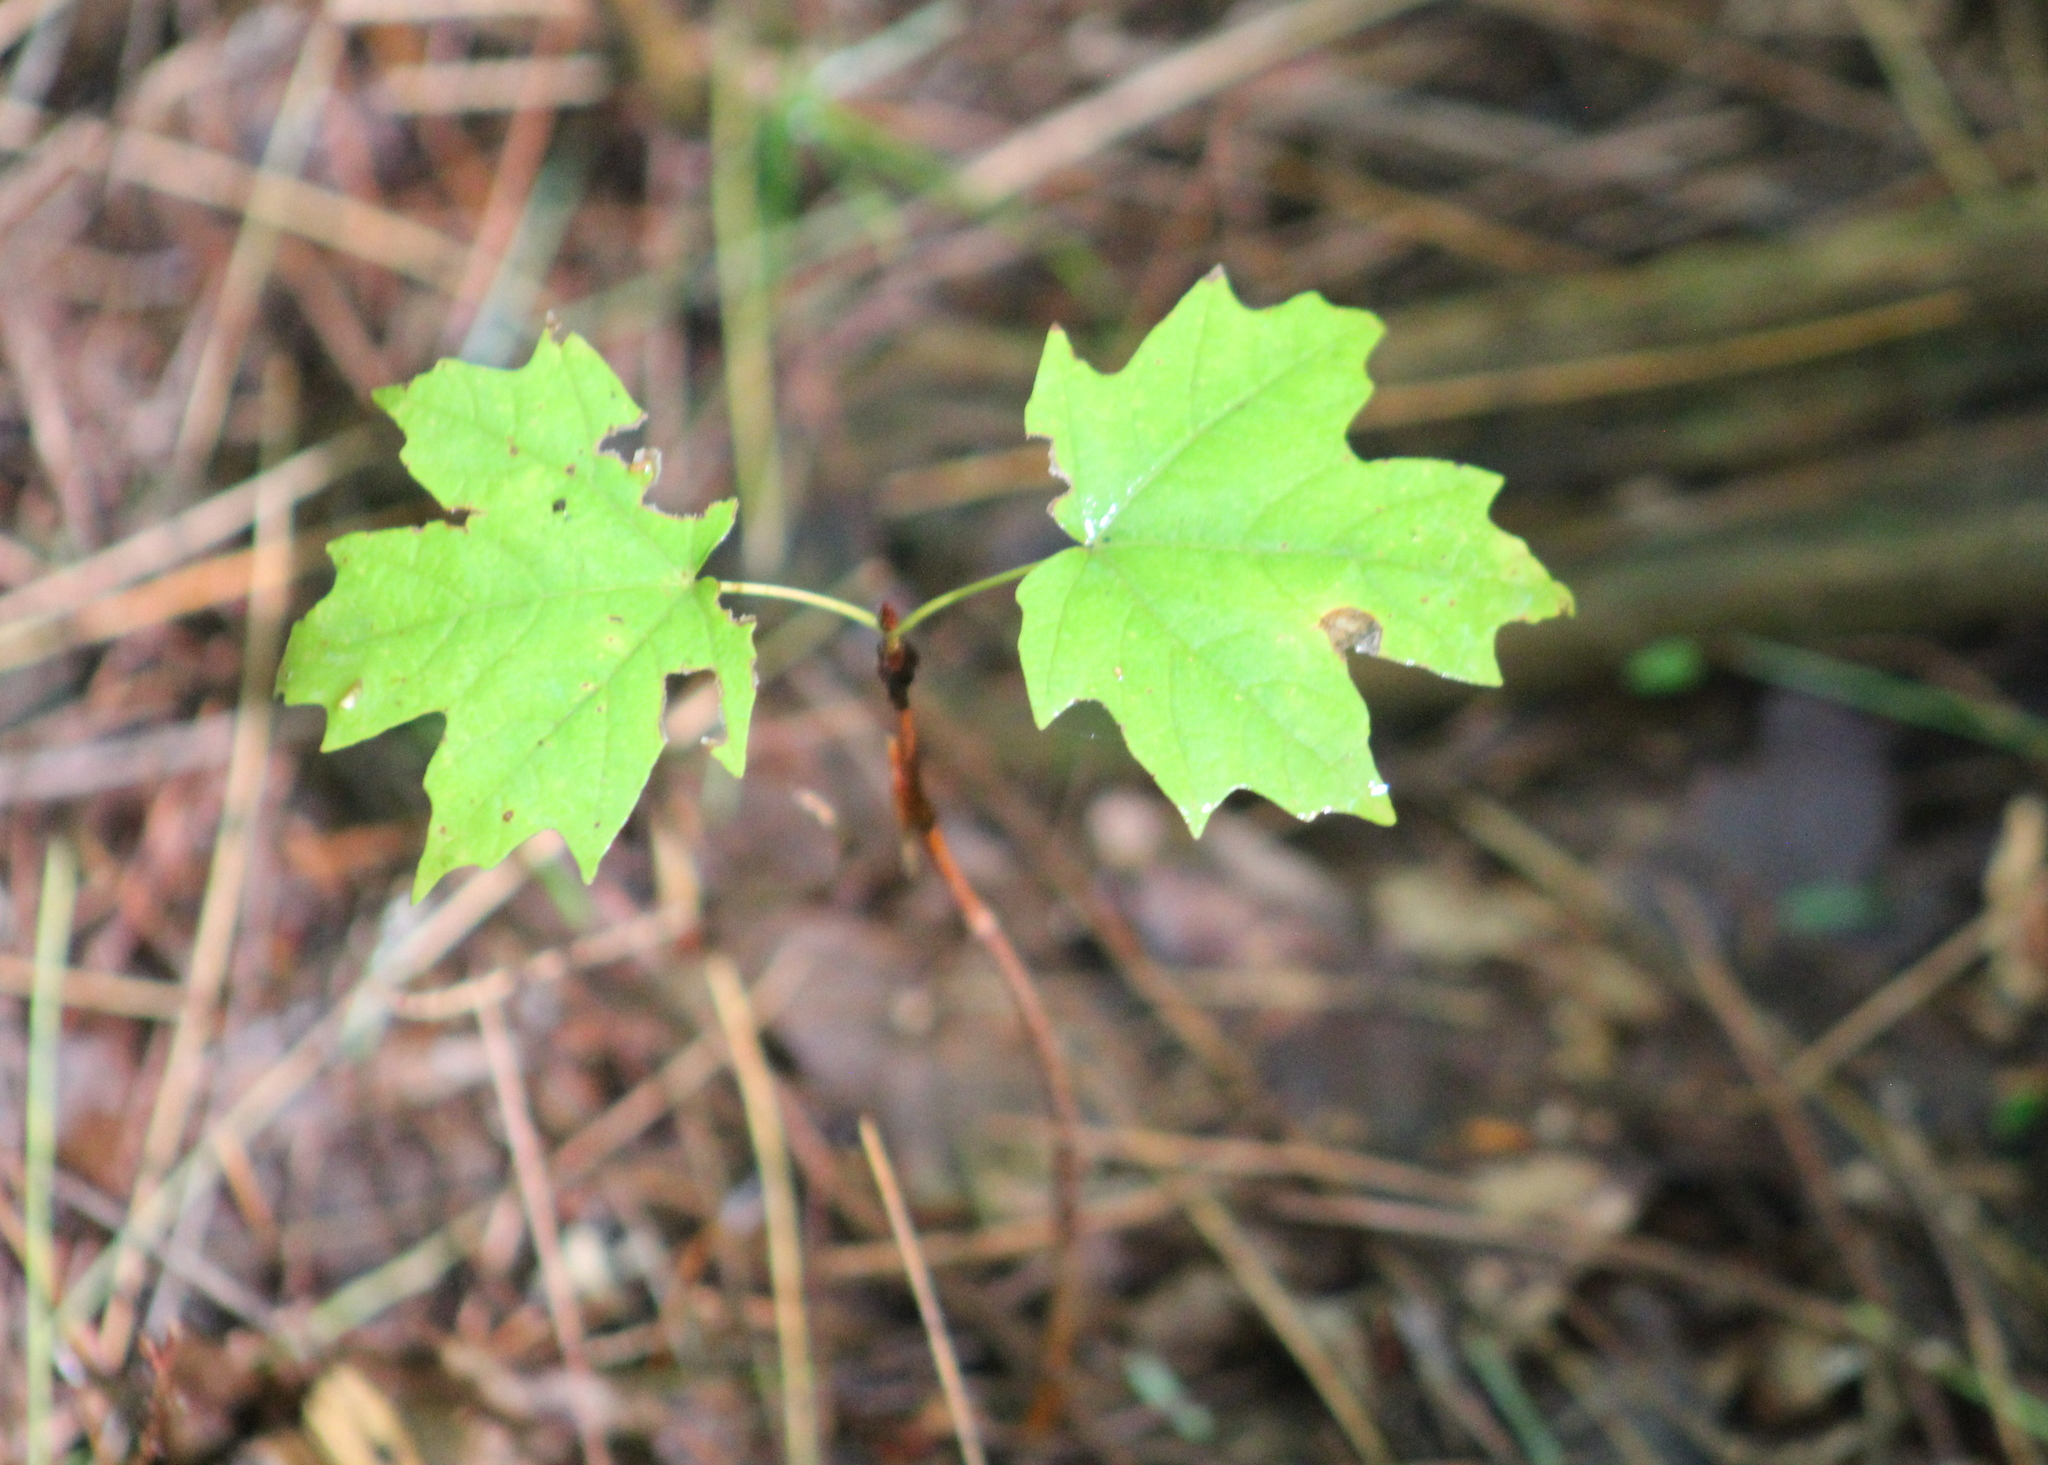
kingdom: Plantae
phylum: Tracheophyta
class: Magnoliopsida
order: Sapindales
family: Sapindaceae
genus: Acer
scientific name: Acer saccharum
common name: Sugar maple
